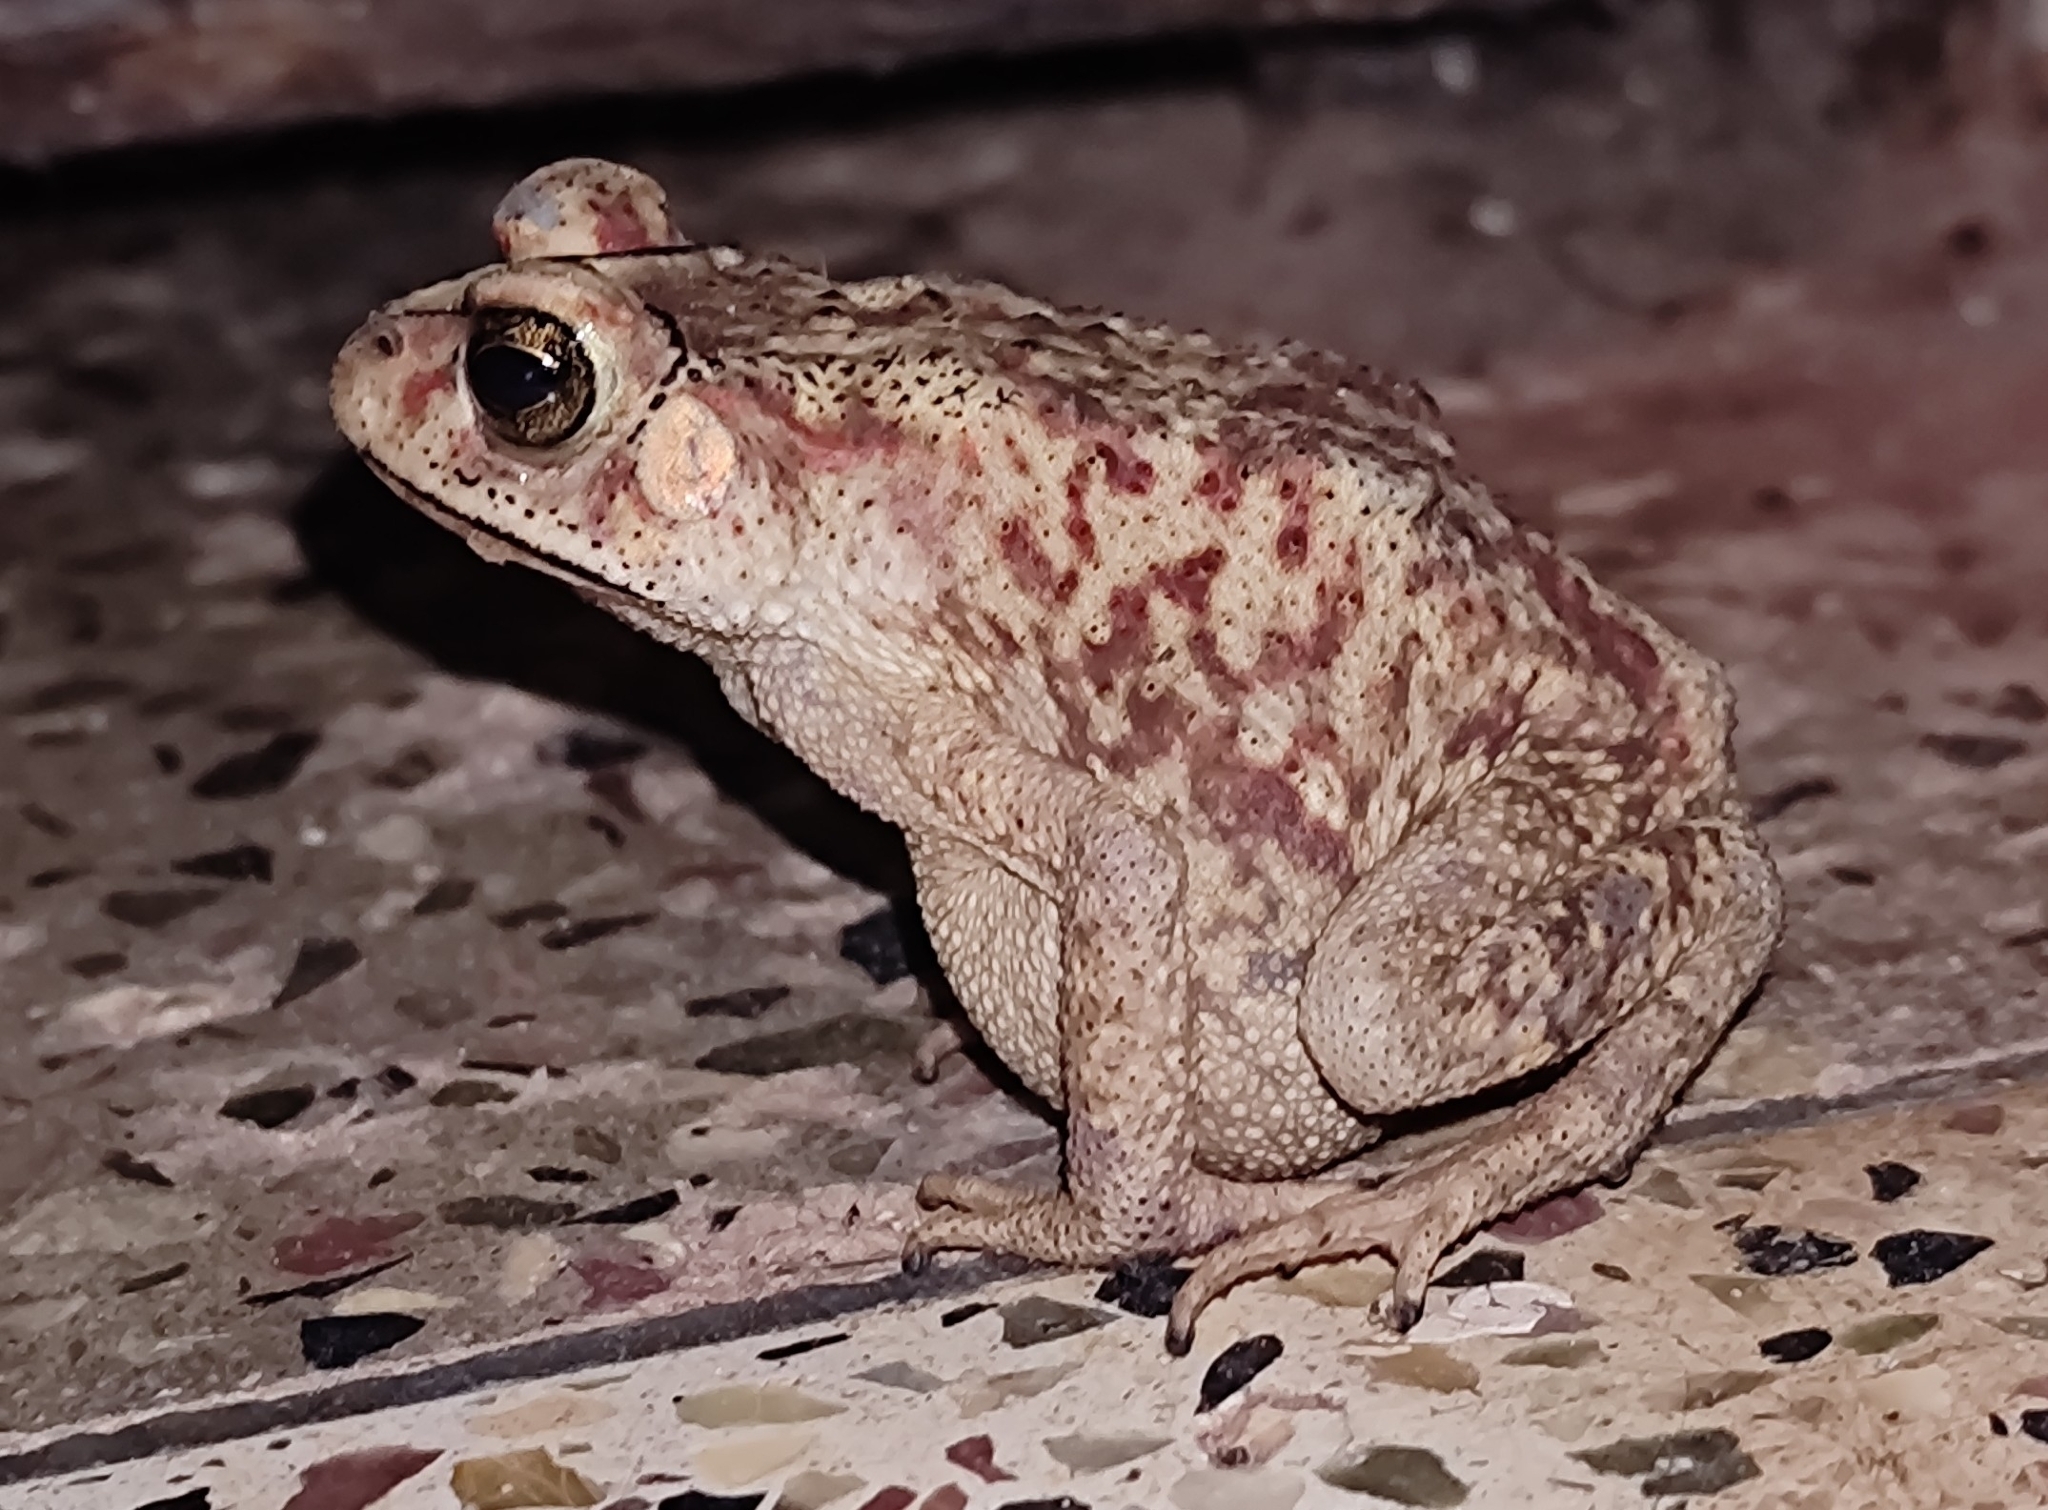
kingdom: Animalia
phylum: Chordata
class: Amphibia
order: Anura
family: Bufonidae
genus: Duttaphrynus
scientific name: Duttaphrynus melanostictus
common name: Common sunda toad
